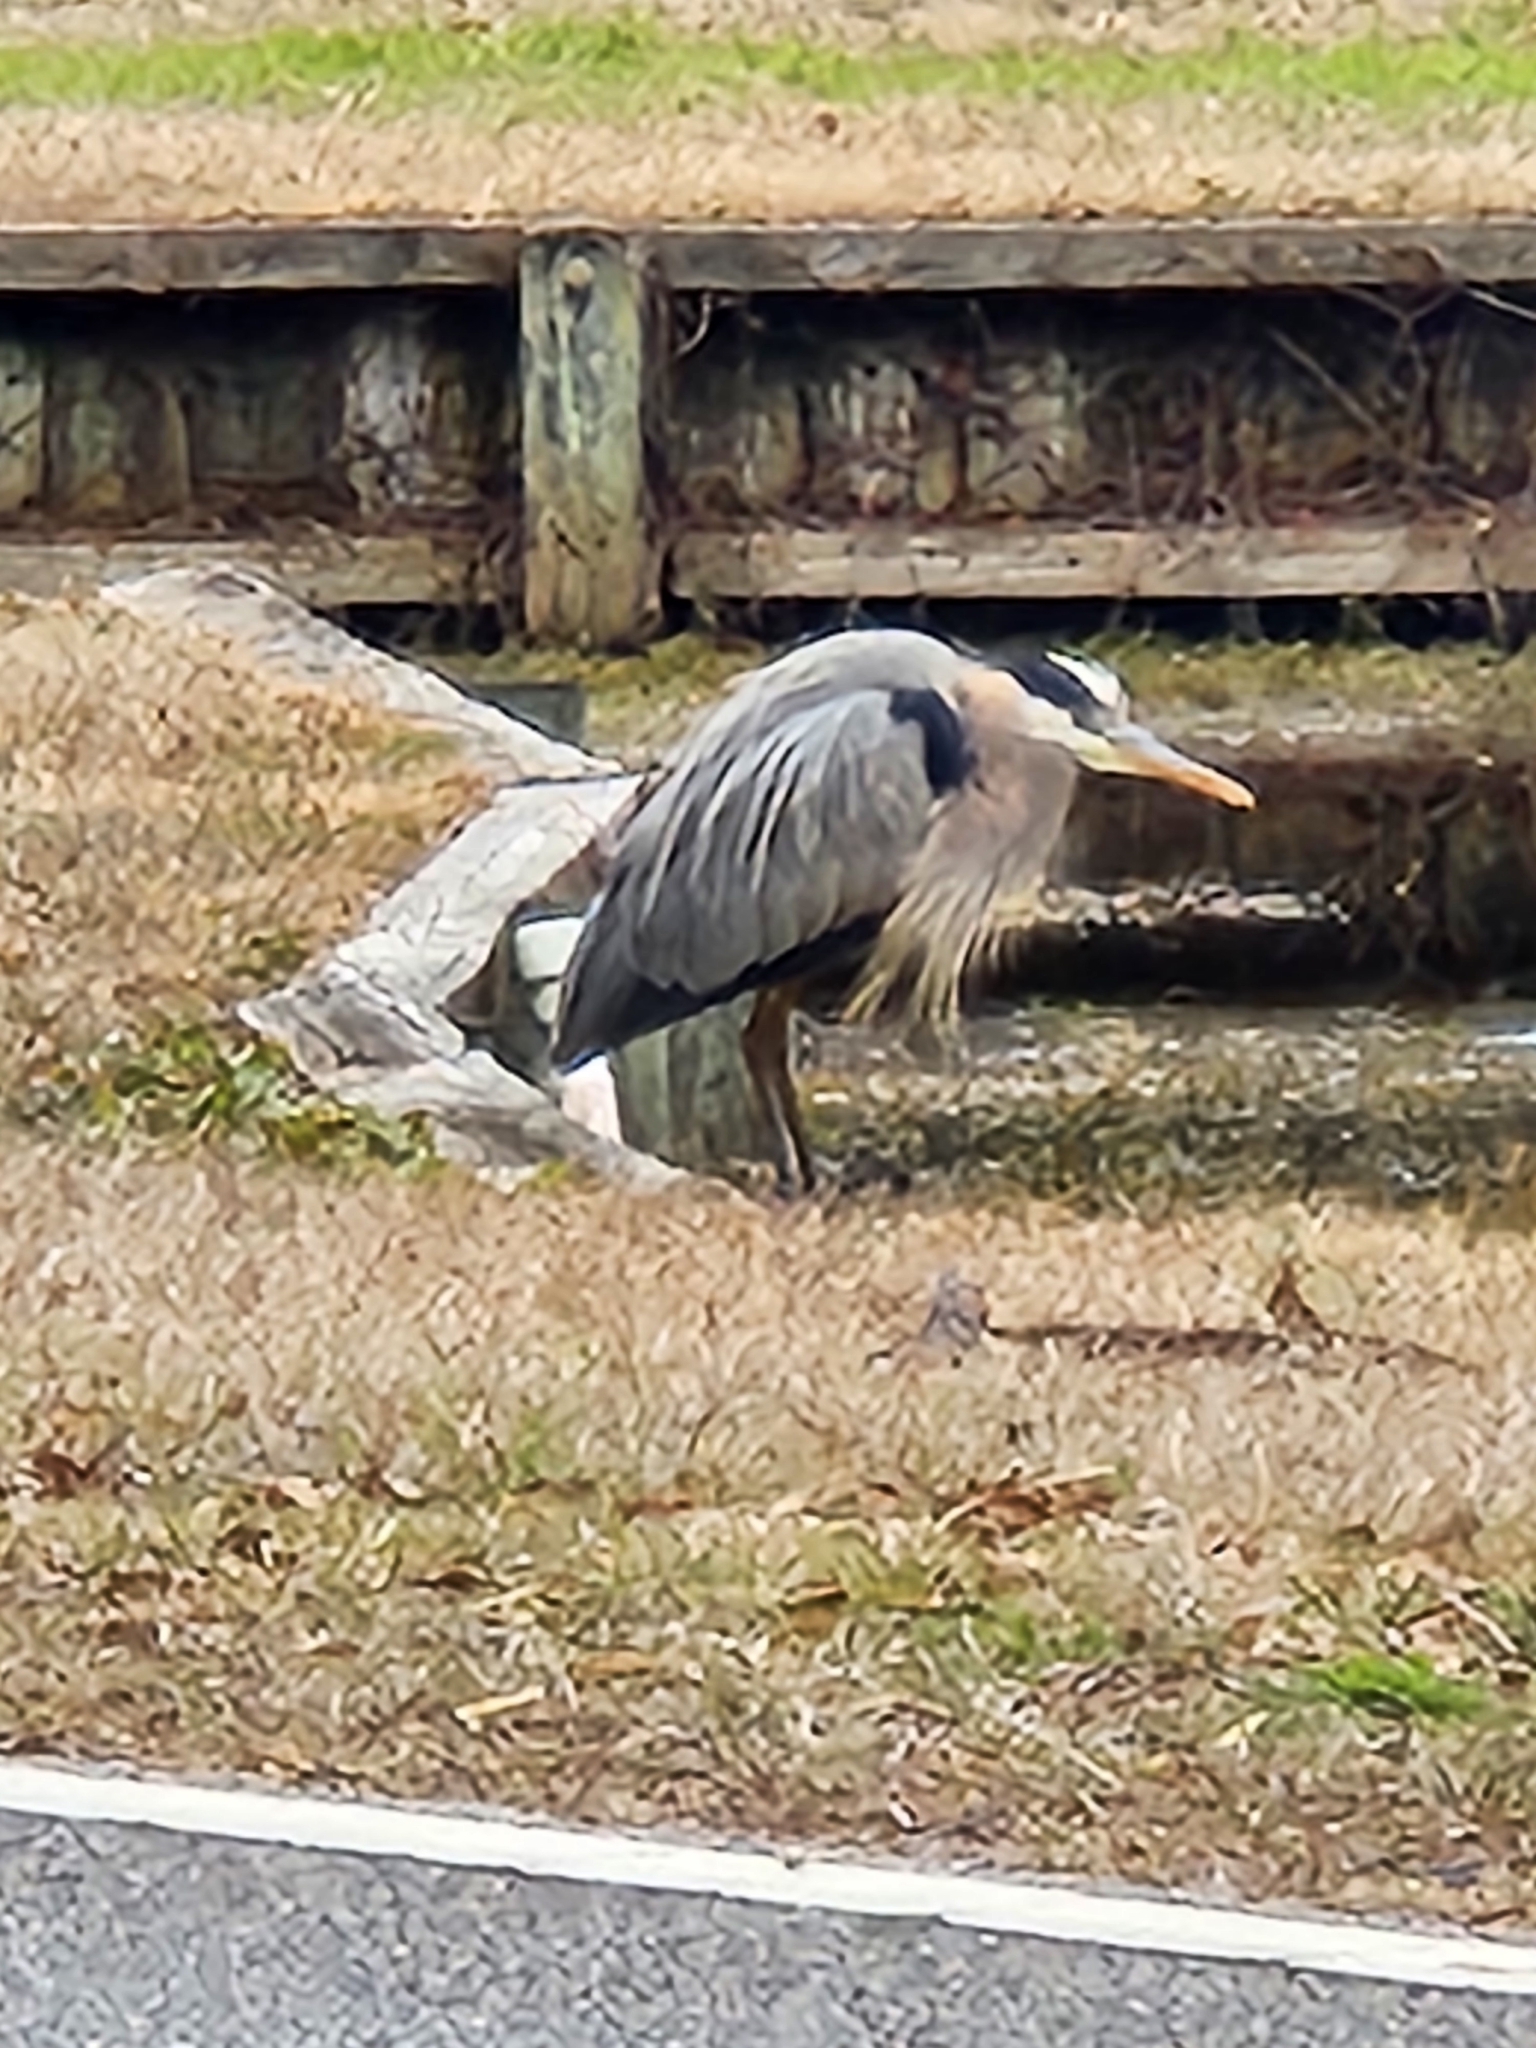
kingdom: Animalia
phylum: Chordata
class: Aves
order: Pelecaniformes
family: Ardeidae
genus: Ardea
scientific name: Ardea herodias
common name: Great blue heron
